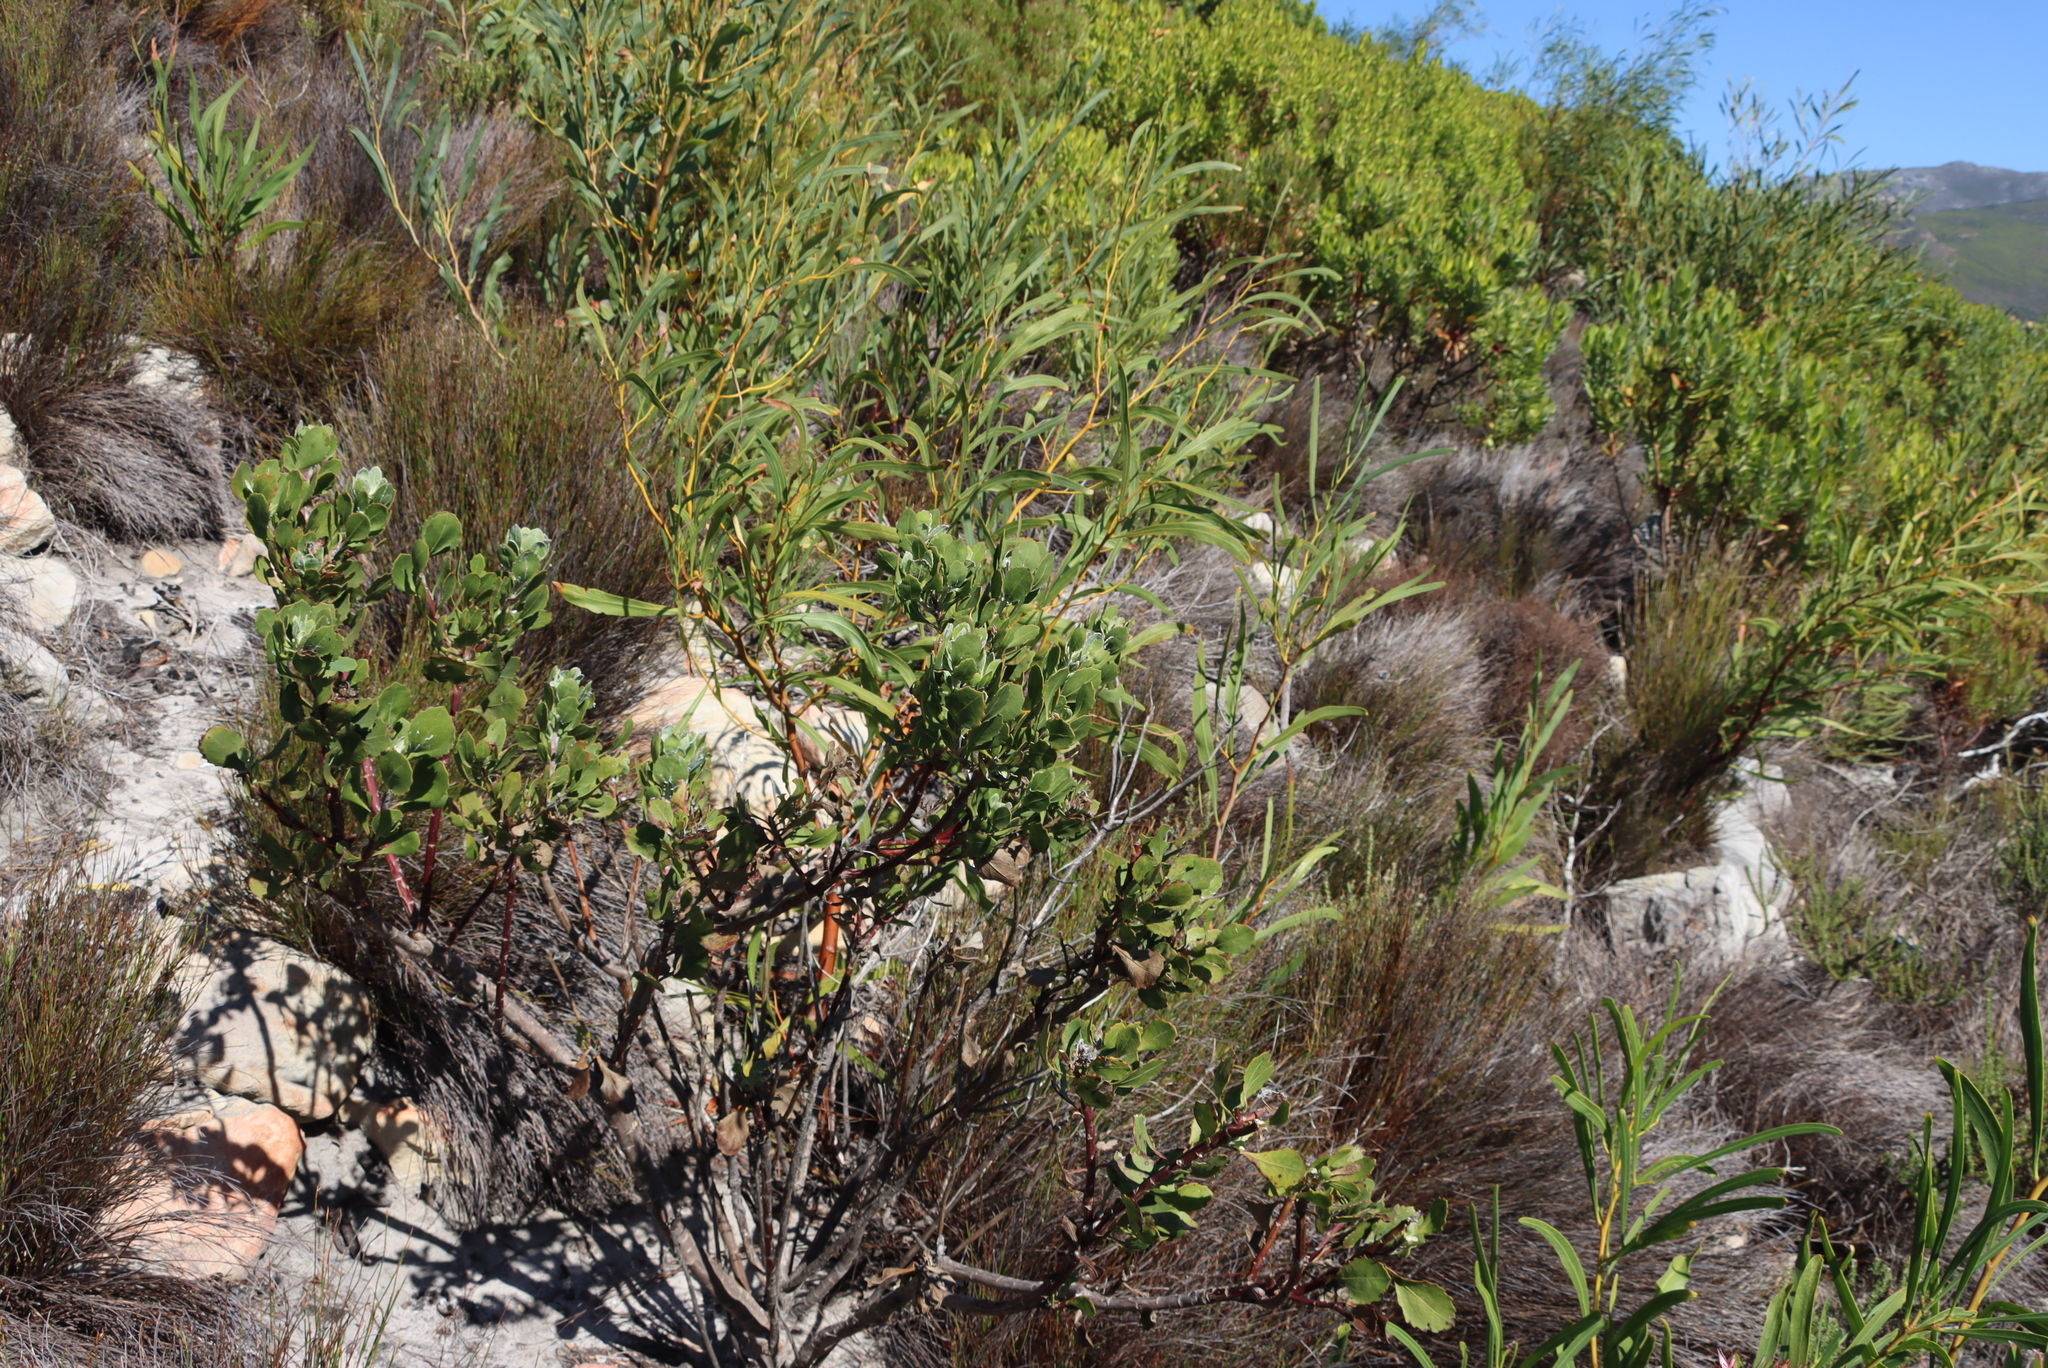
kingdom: Plantae
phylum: Tracheophyta
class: Magnoliopsida
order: Asterales
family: Asteraceae
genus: Osteospermum
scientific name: Osteospermum moniliferum
